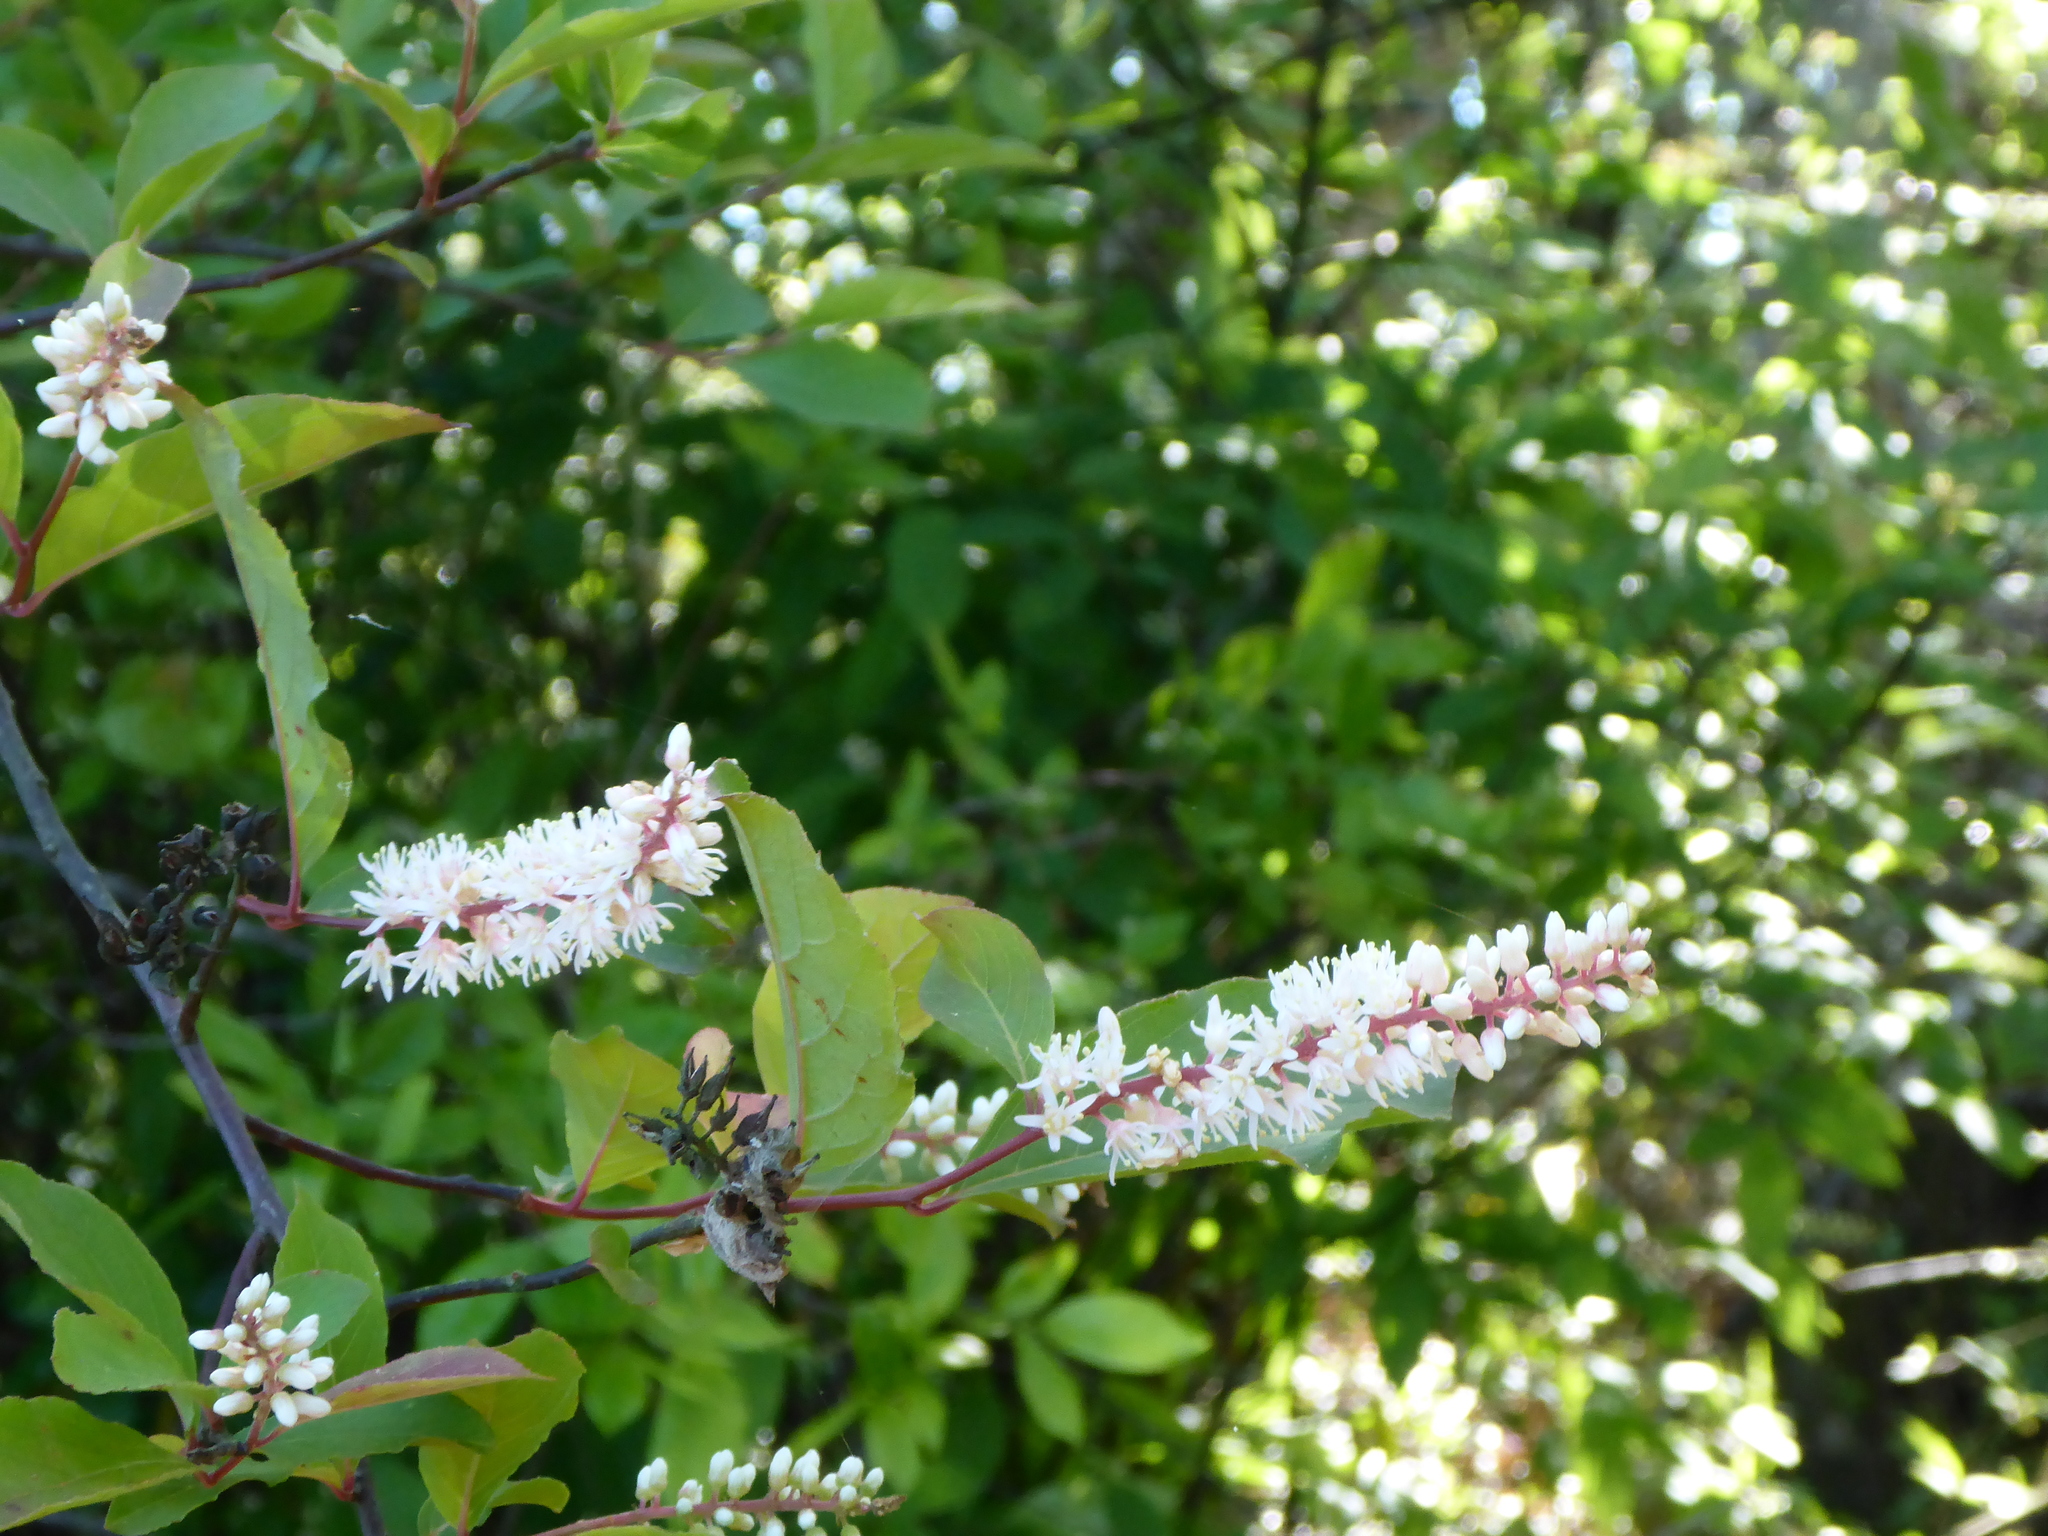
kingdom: Plantae
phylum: Tracheophyta
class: Magnoliopsida
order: Saxifragales
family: Iteaceae
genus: Itea
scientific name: Itea virginica
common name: Sweetspire
